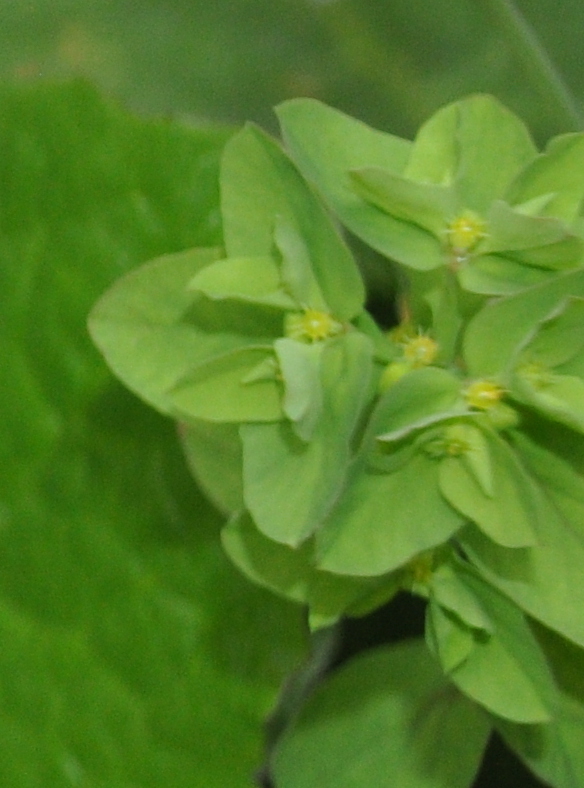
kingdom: Plantae
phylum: Tracheophyta
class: Magnoliopsida
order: Malpighiales
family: Euphorbiaceae
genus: Euphorbia
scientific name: Euphorbia peplus
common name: Petty spurge
